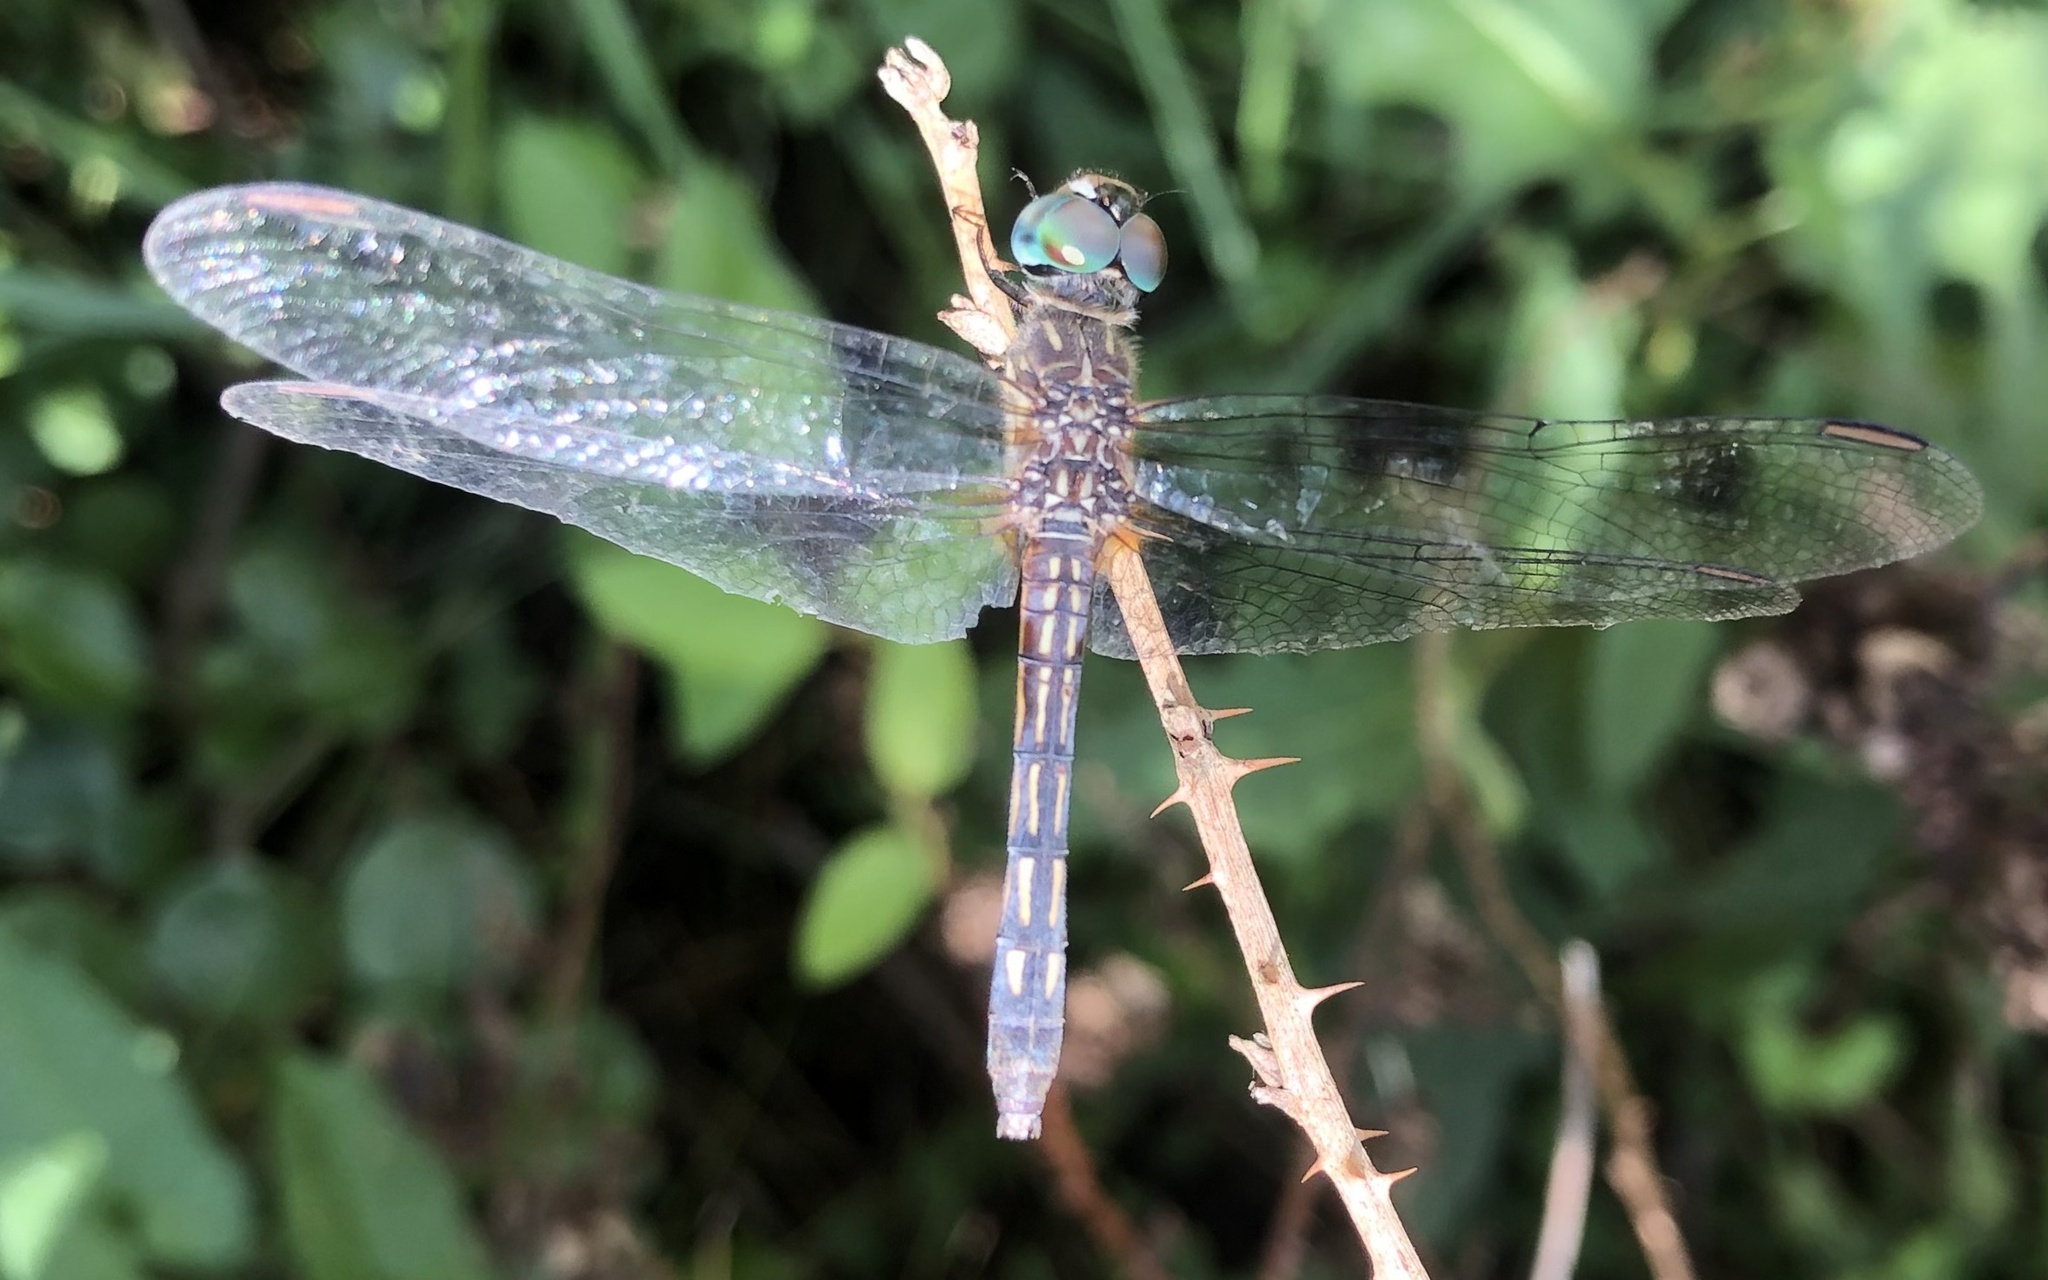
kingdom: Animalia
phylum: Arthropoda
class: Insecta
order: Odonata
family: Libellulidae
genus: Pachydiplax
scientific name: Pachydiplax longipennis
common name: Blue dasher
